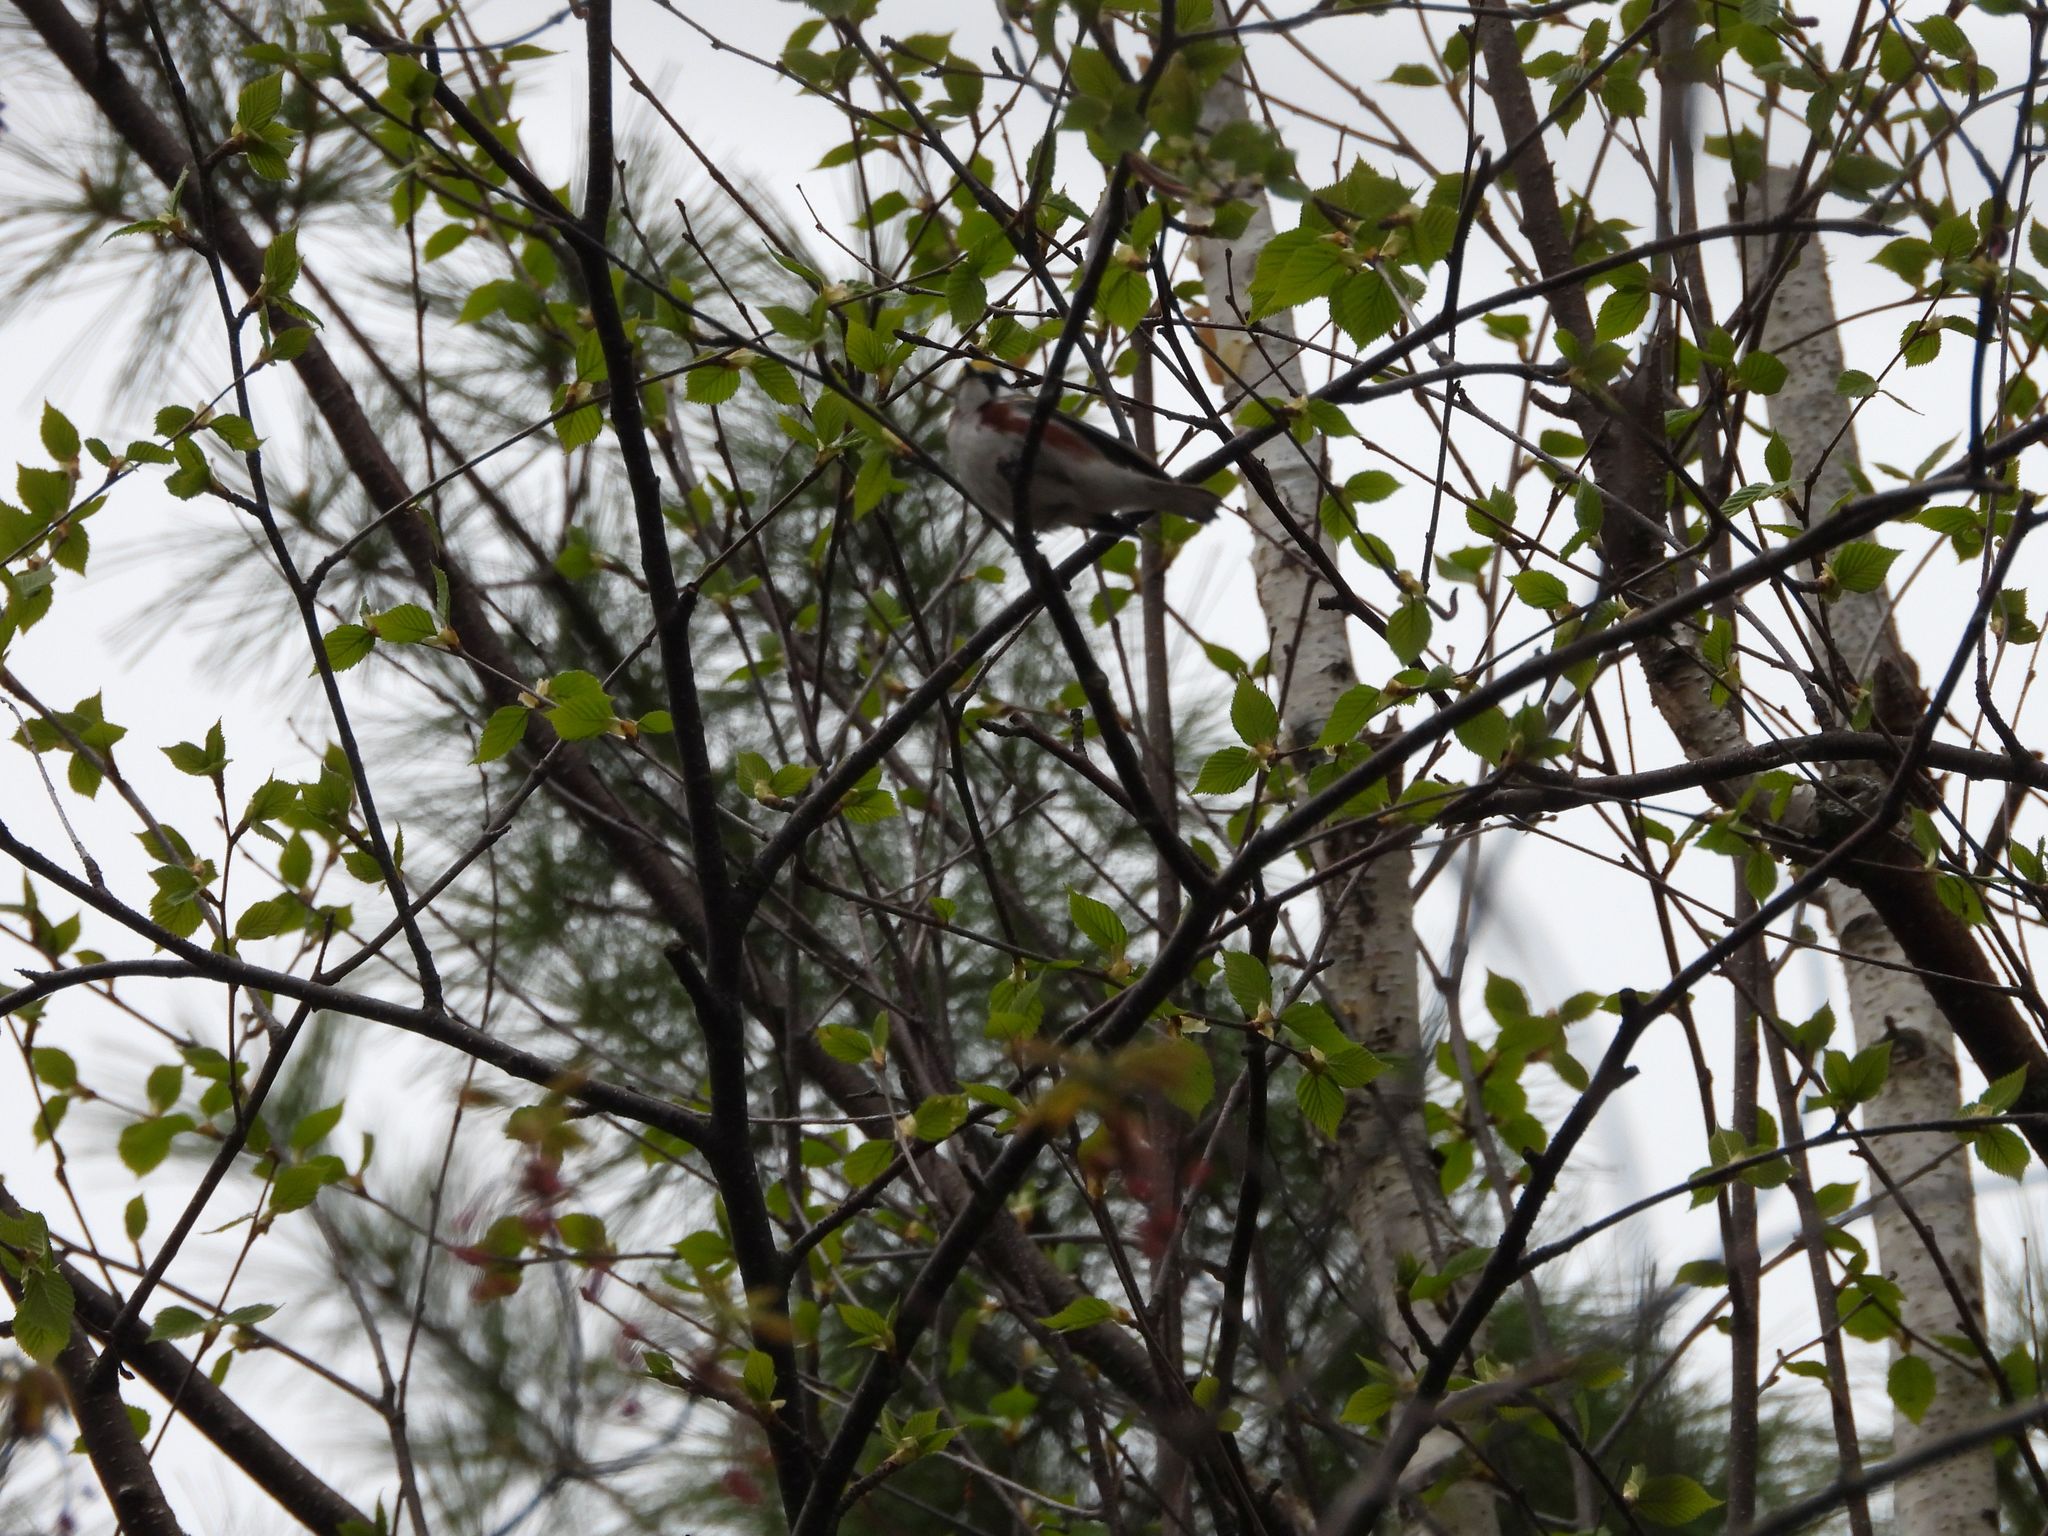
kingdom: Animalia
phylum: Chordata
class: Aves
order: Passeriformes
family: Parulidae
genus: Setophaga
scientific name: Setophaga pensylvanica
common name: Chestnut-sided warbler
